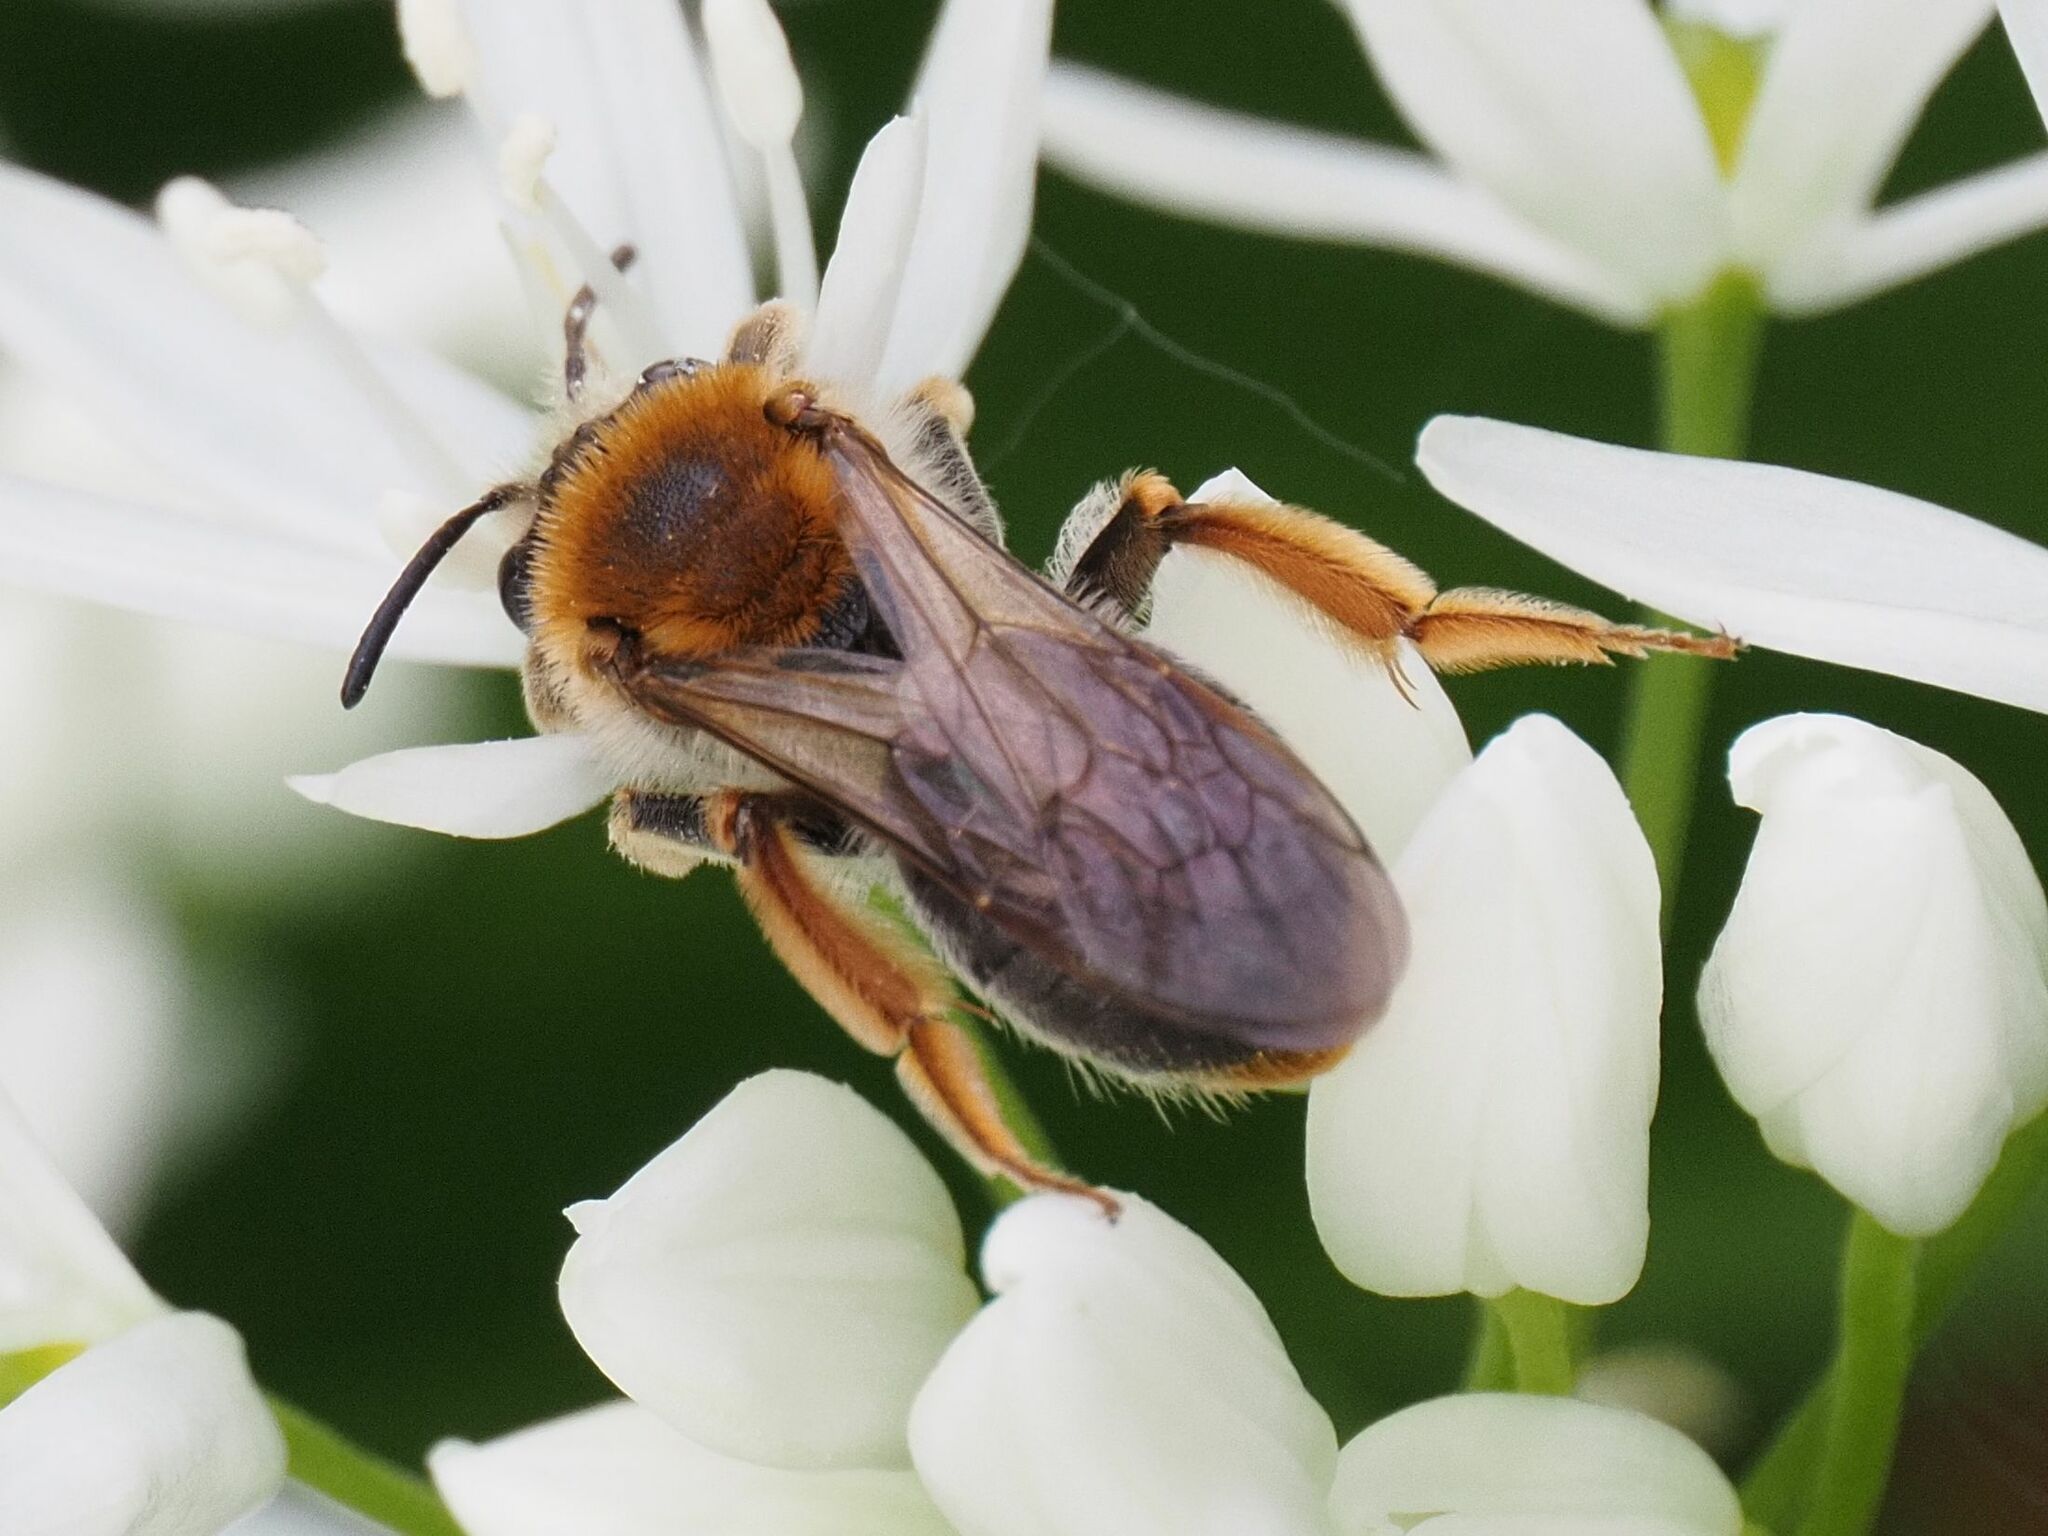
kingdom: Animalia
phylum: Arthropoda
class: Insecta
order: Hymenoptera
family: Andrenidae
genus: Andrena
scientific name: Andrena haemorrhoa
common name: Early mining bee
